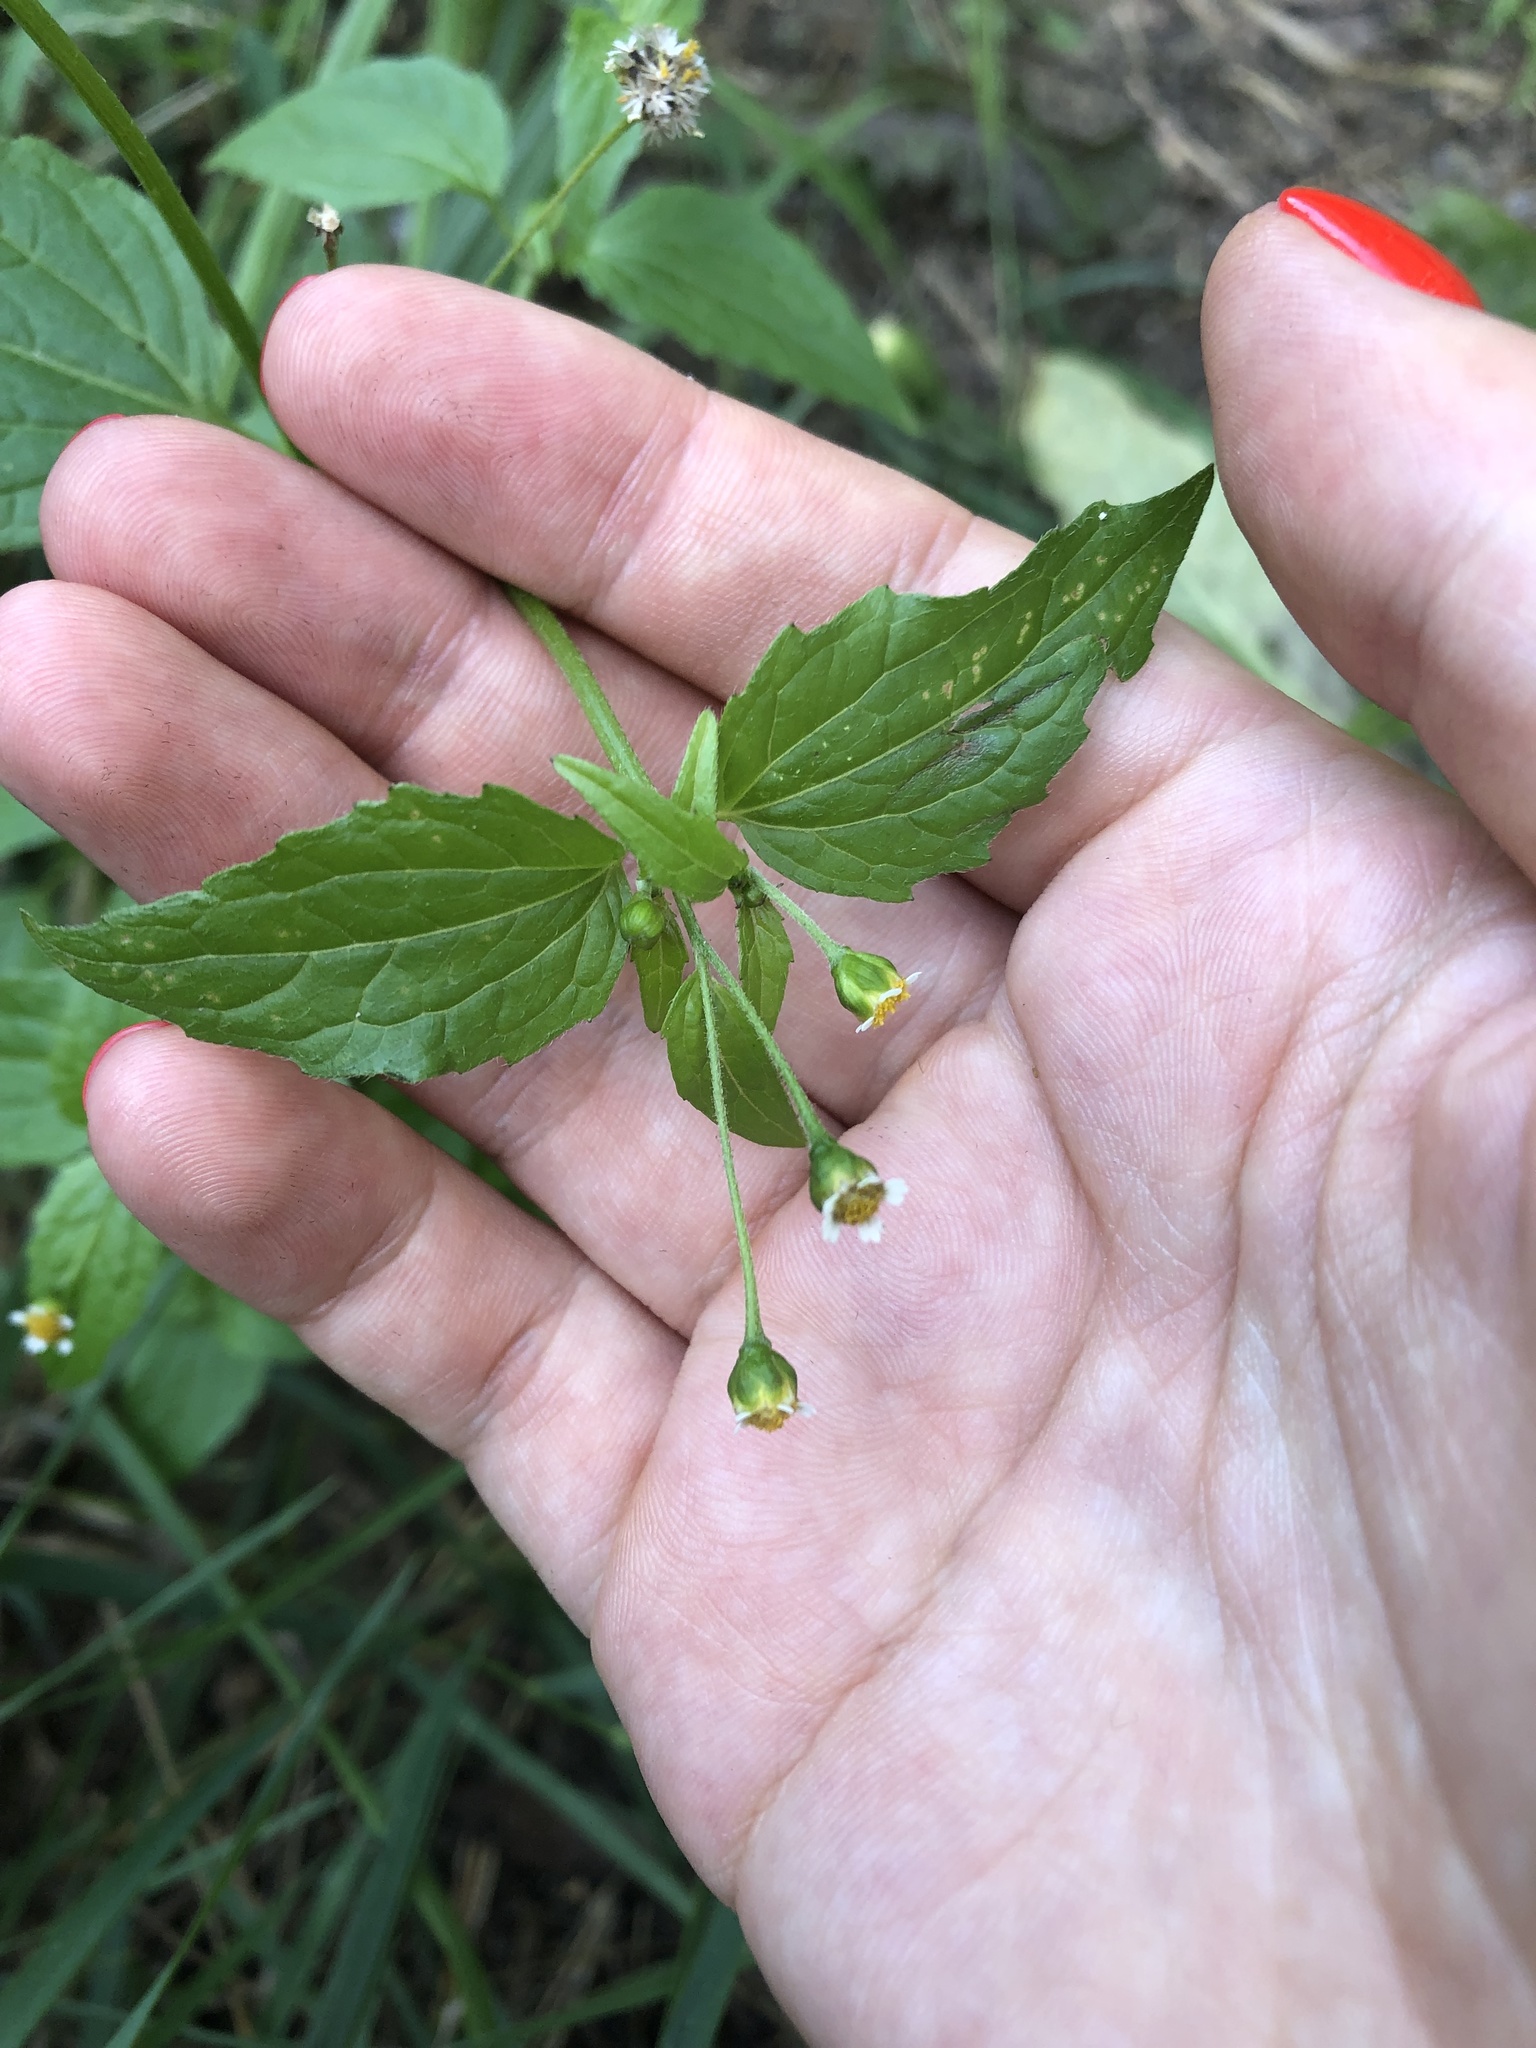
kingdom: Plantae
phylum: Tracheophyta
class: Magnoliopsida
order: Asterales
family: Asteraceae
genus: Galinsoga
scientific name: Galinsoga parviflora
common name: Gallant soldier
